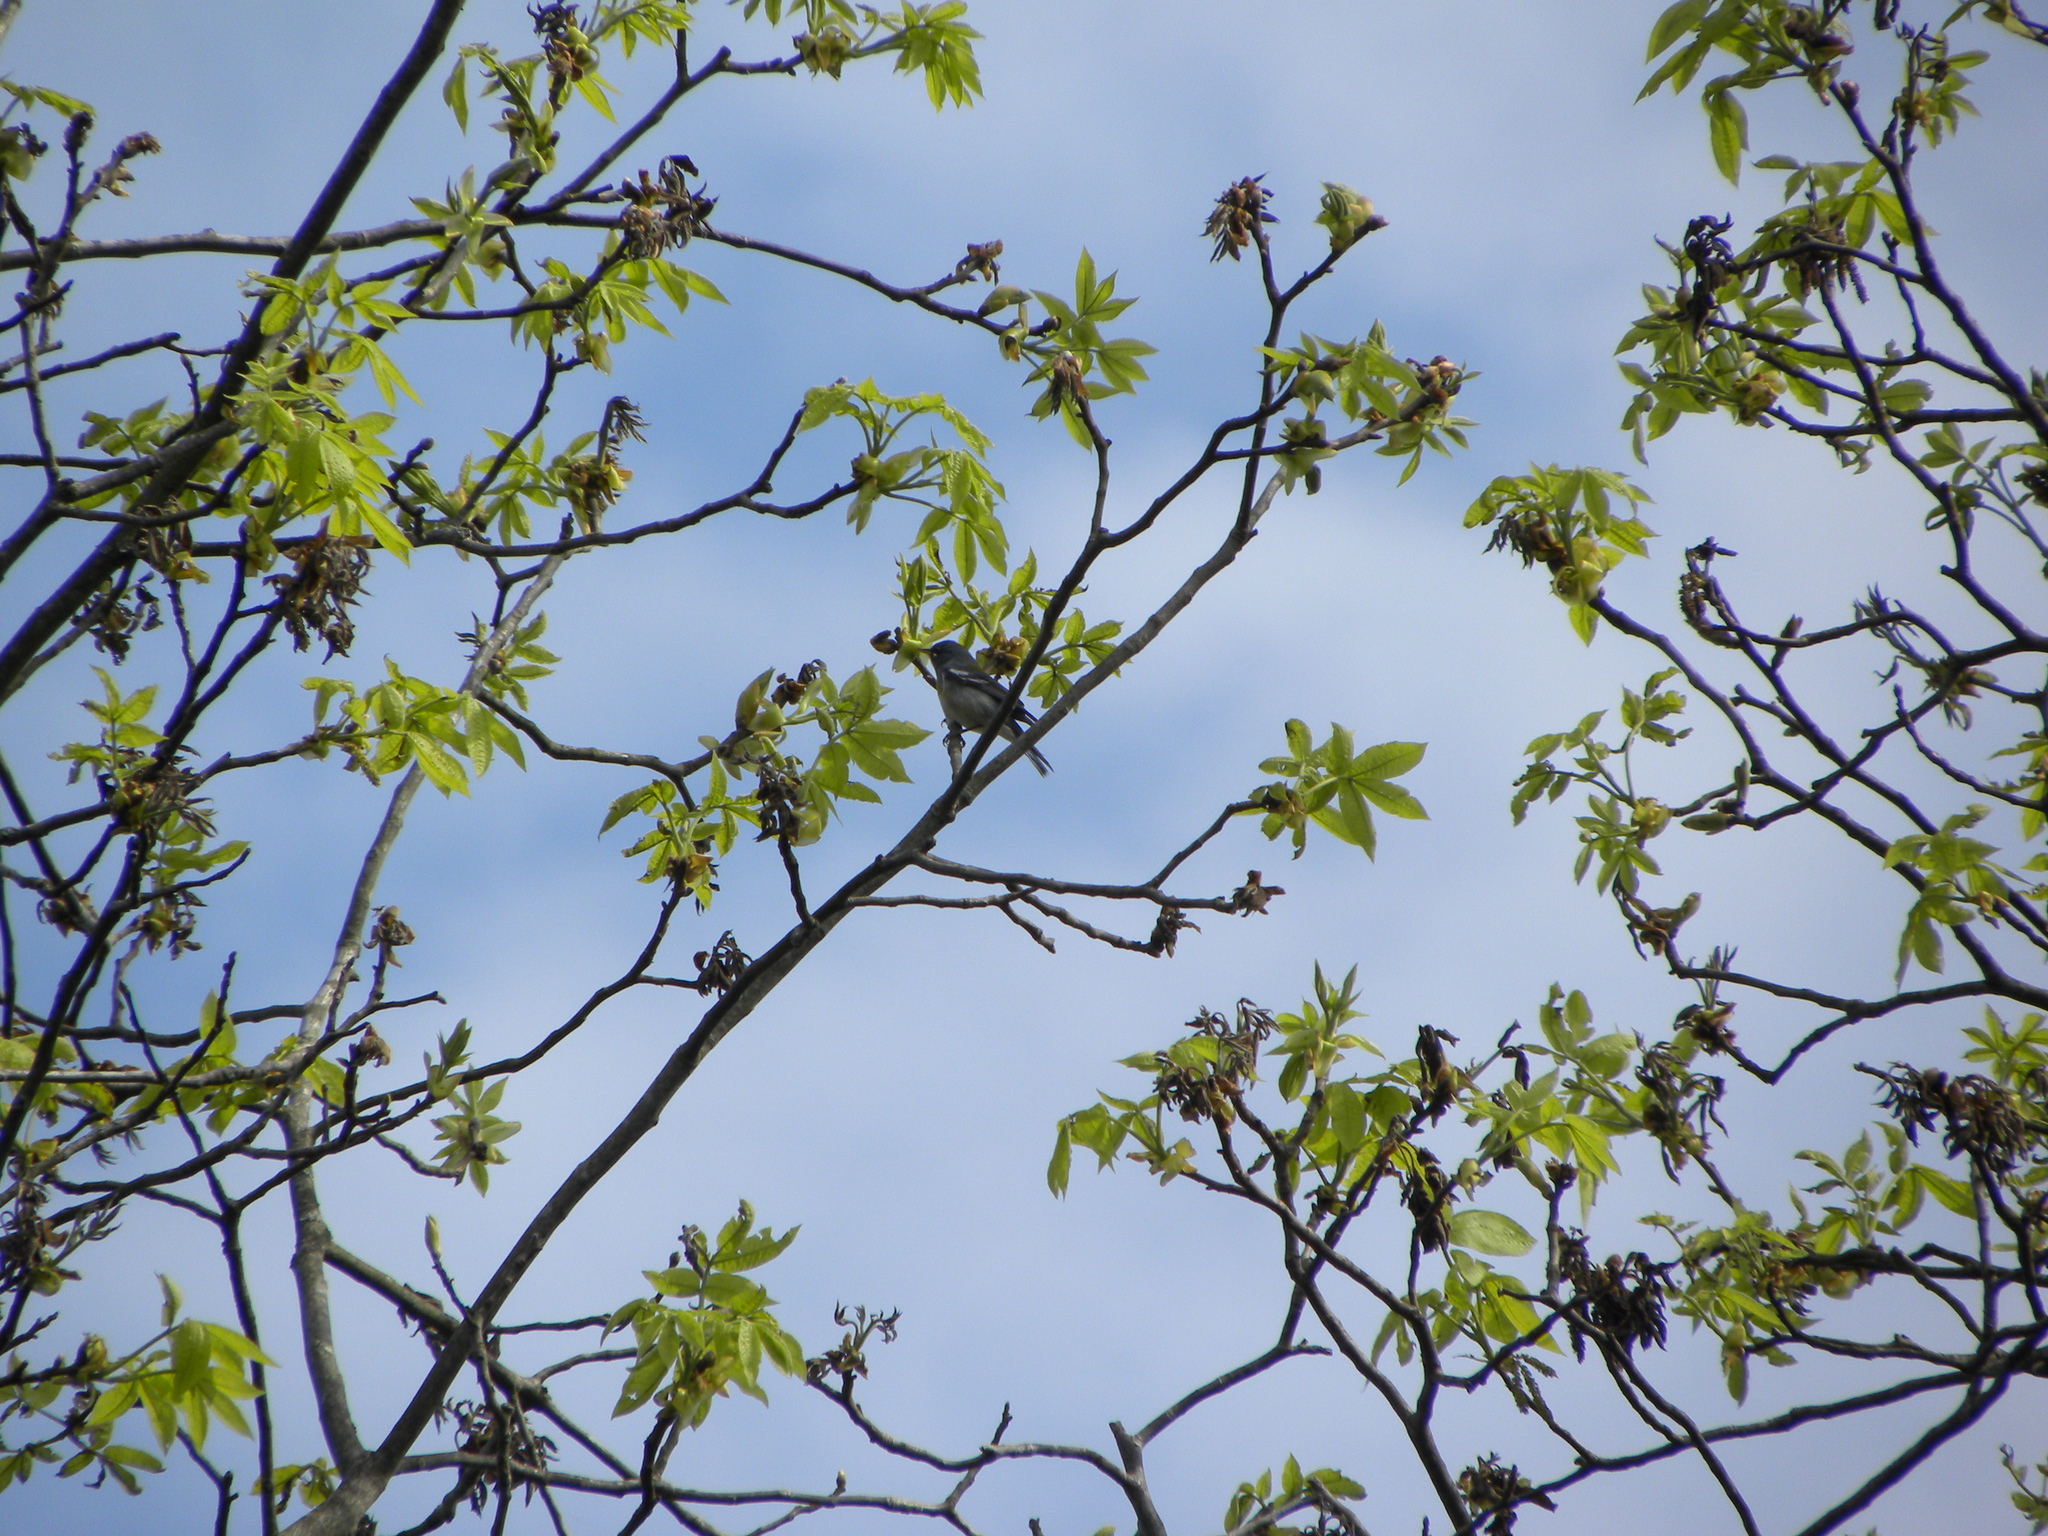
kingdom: Animalia
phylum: Chordata
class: Aves
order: Passeriformes
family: Parulidae
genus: Setophaga
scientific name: Setophaga americana
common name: Northern parula
